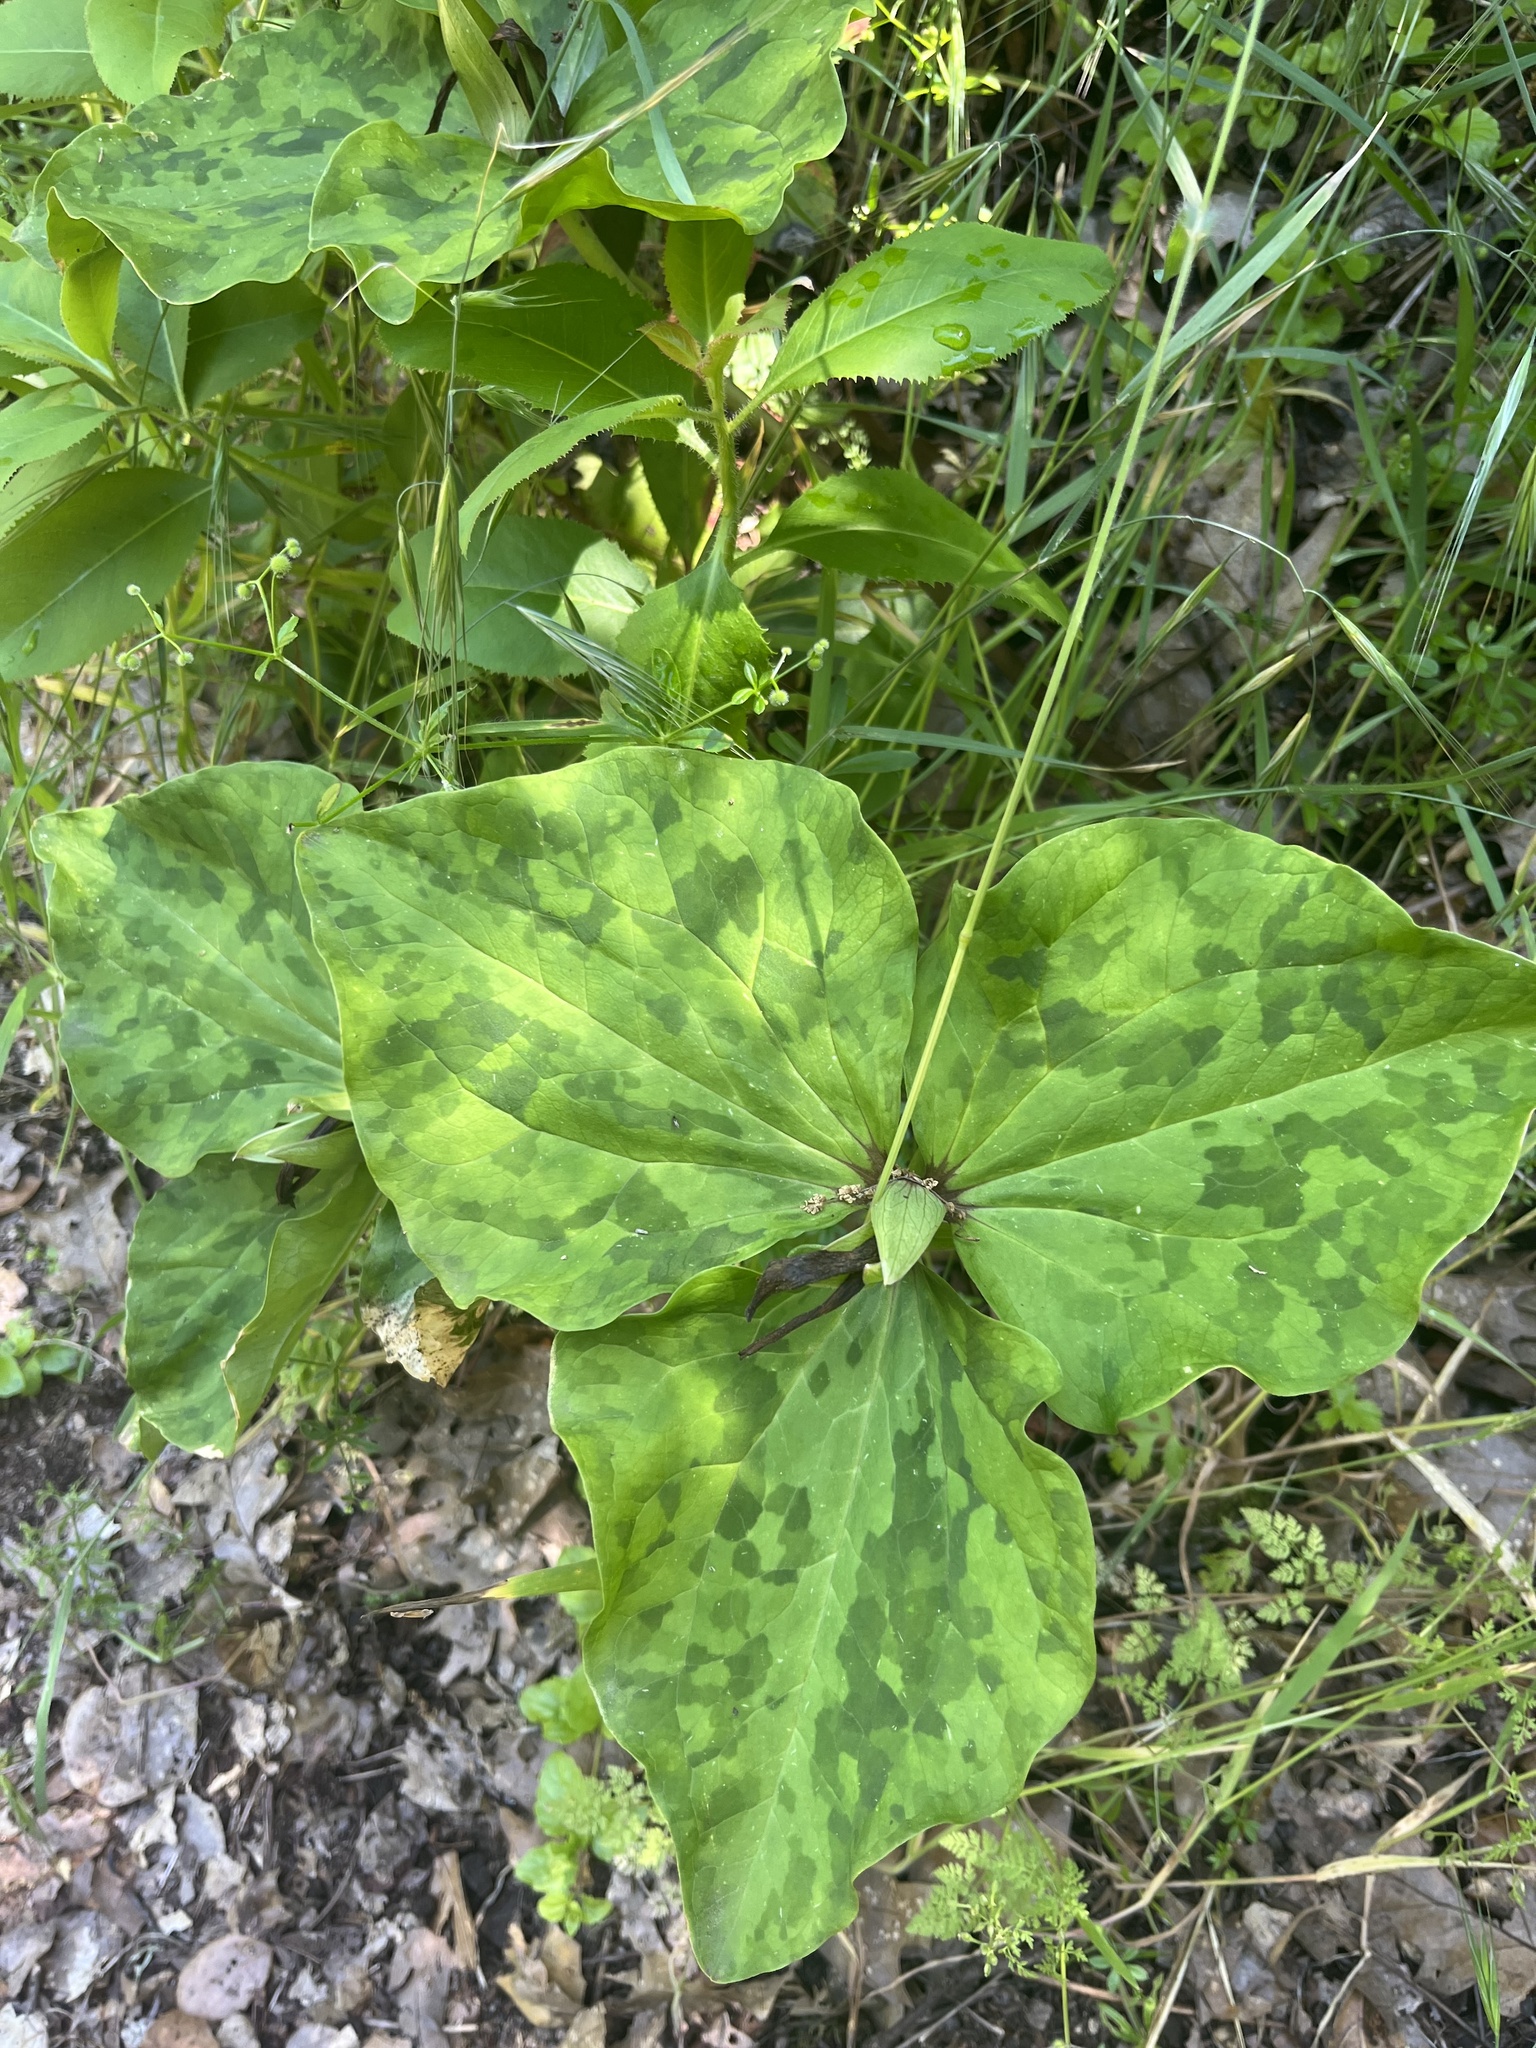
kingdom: Plantae
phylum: Tracheophyta
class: Liliopsida
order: Liliales
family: Melanthiaceae
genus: Trillium
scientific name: Trillium chloropetalum
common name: Giant trillium
